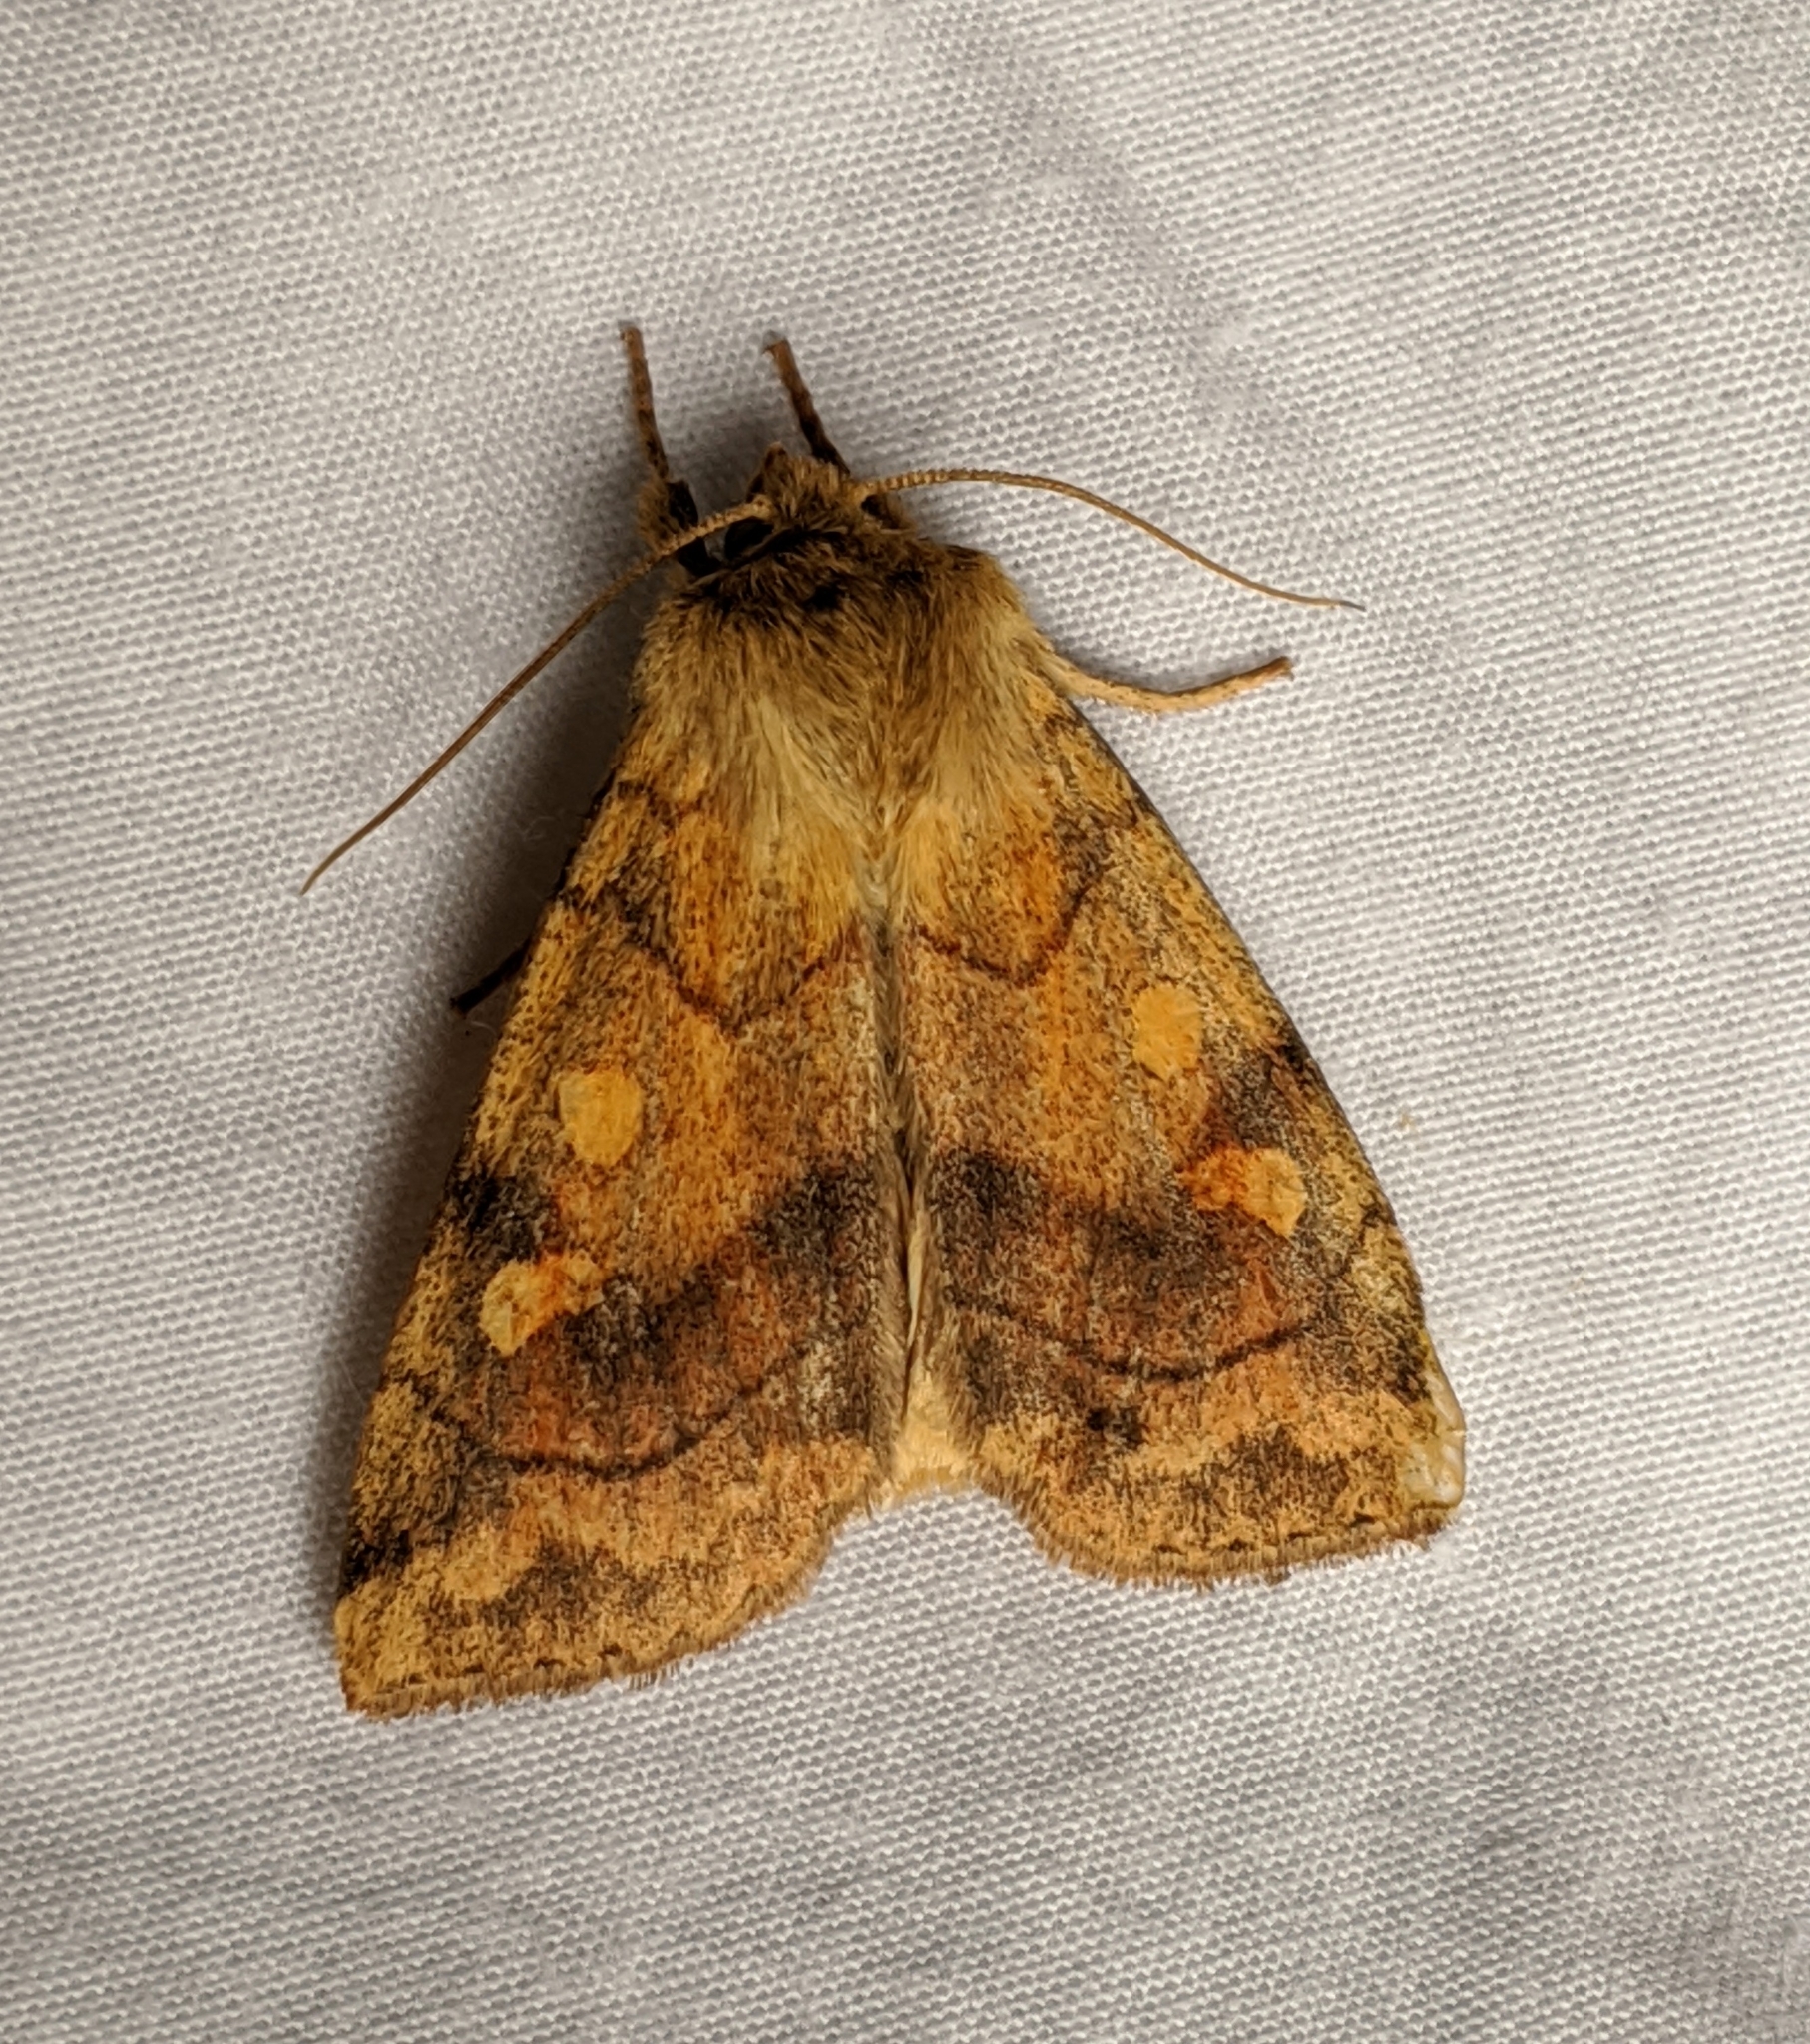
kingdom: Animalia
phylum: Arthropoda
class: Insecta
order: Lepidoptera
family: Noctuidae
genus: Enargia
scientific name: Enargia decolor
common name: Aspen twoleaf tier moth
